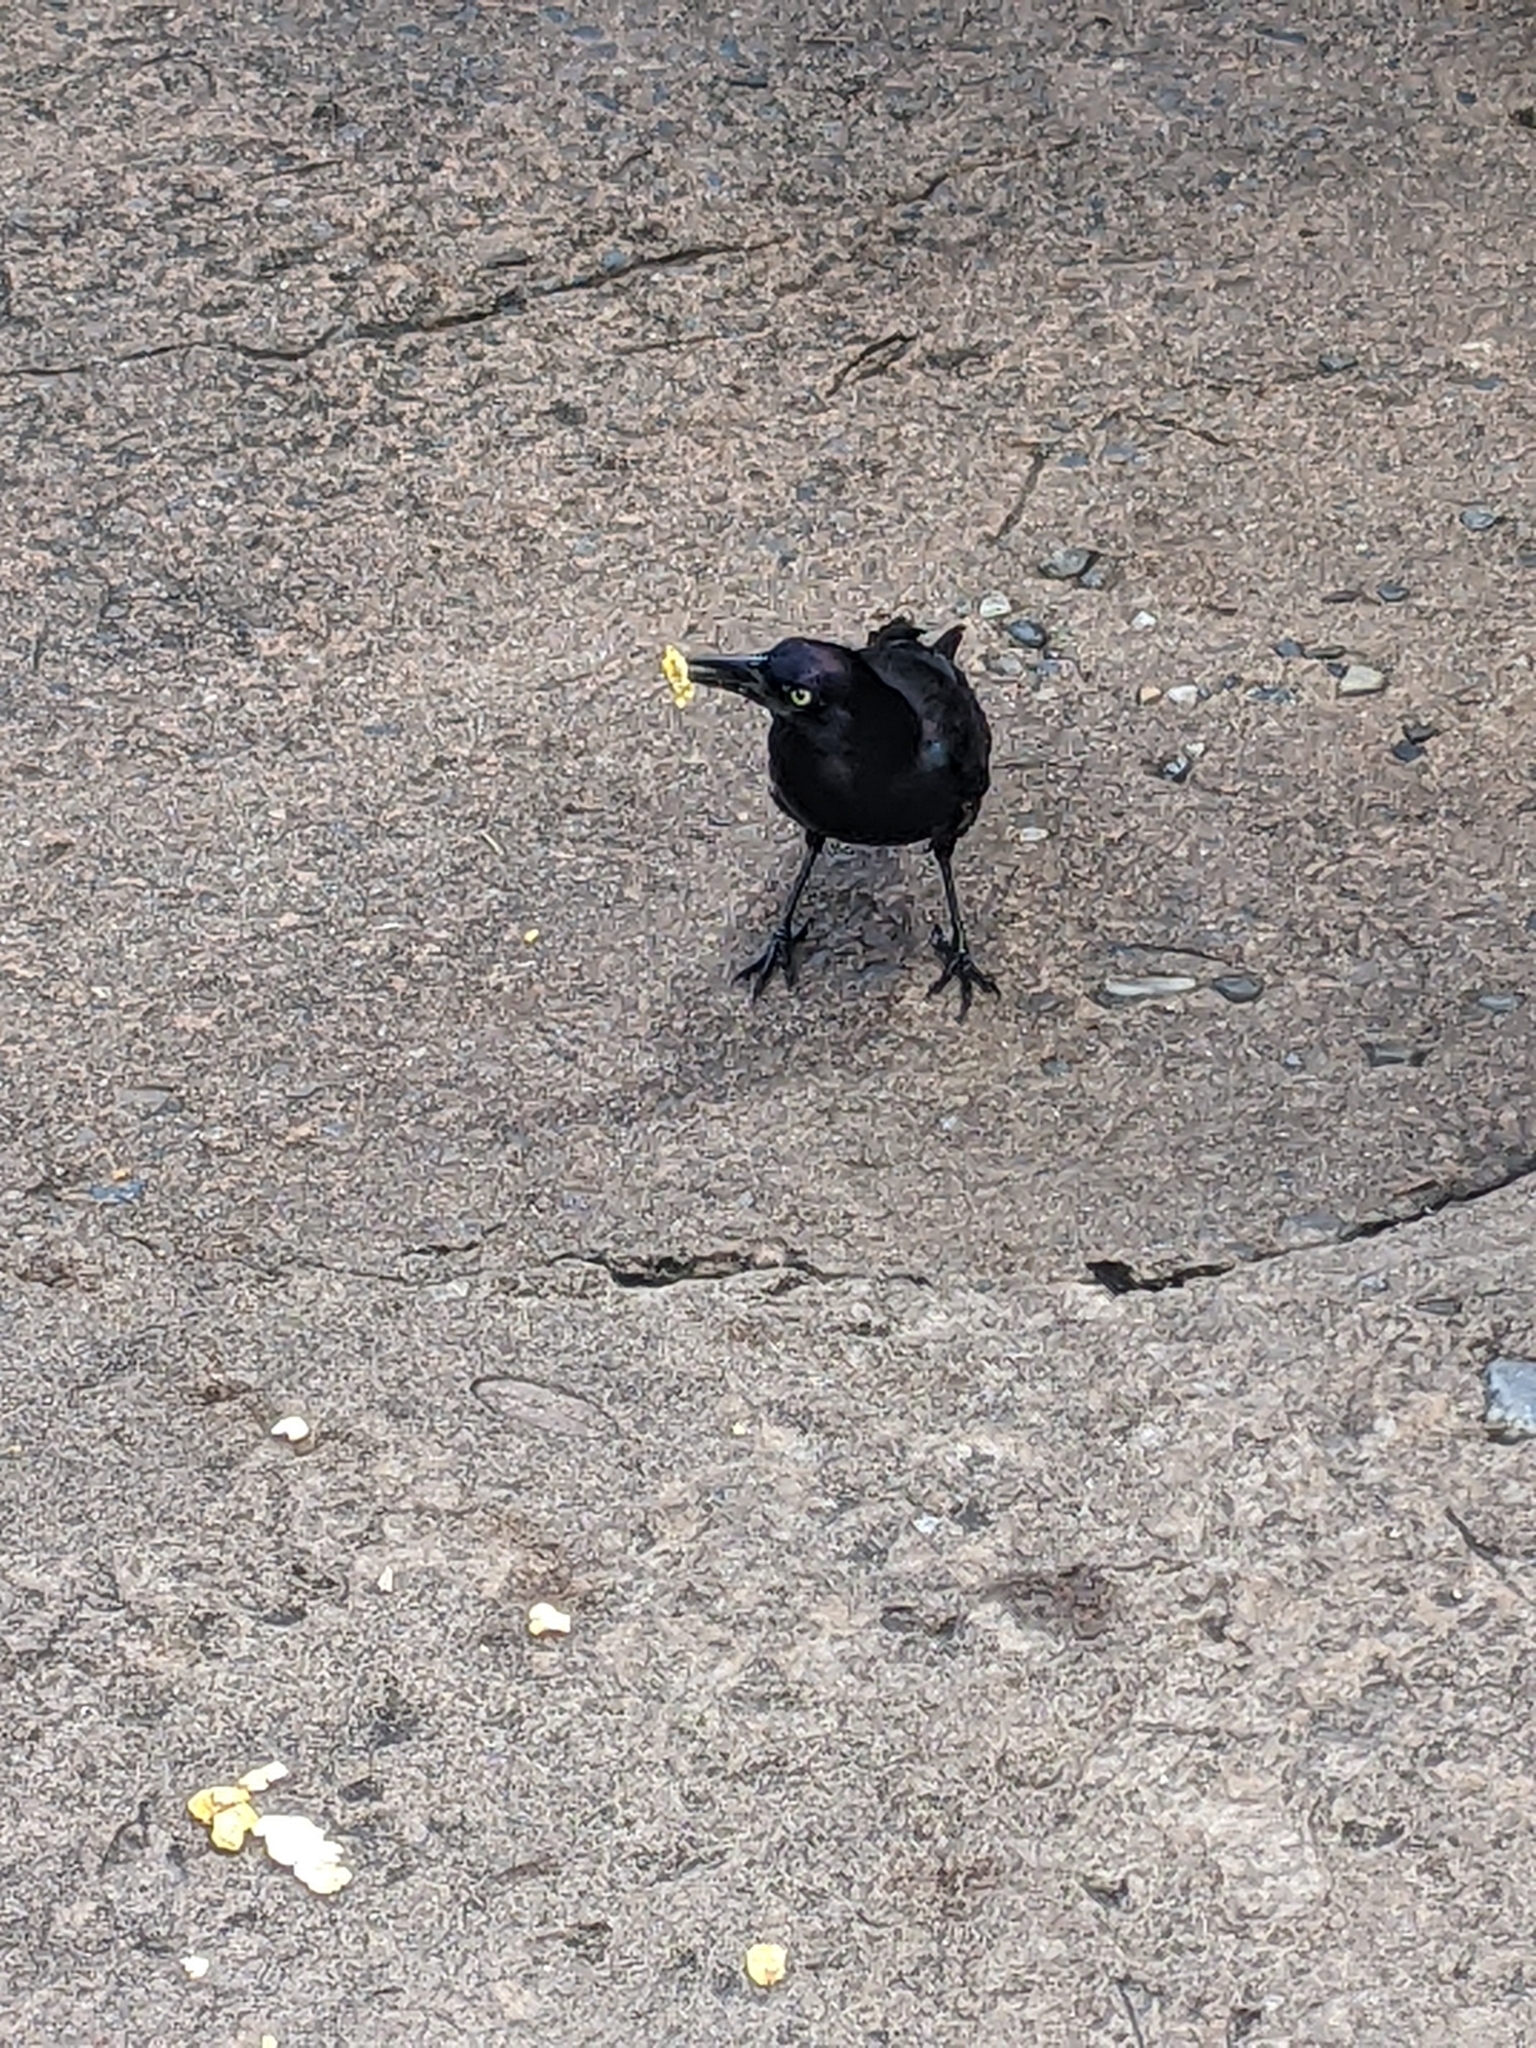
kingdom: Animalia
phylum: Chordata
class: Aves
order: Passeriformes
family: Icteridae
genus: Quiscalus
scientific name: Quiscalus quiscula
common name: Common grackle
